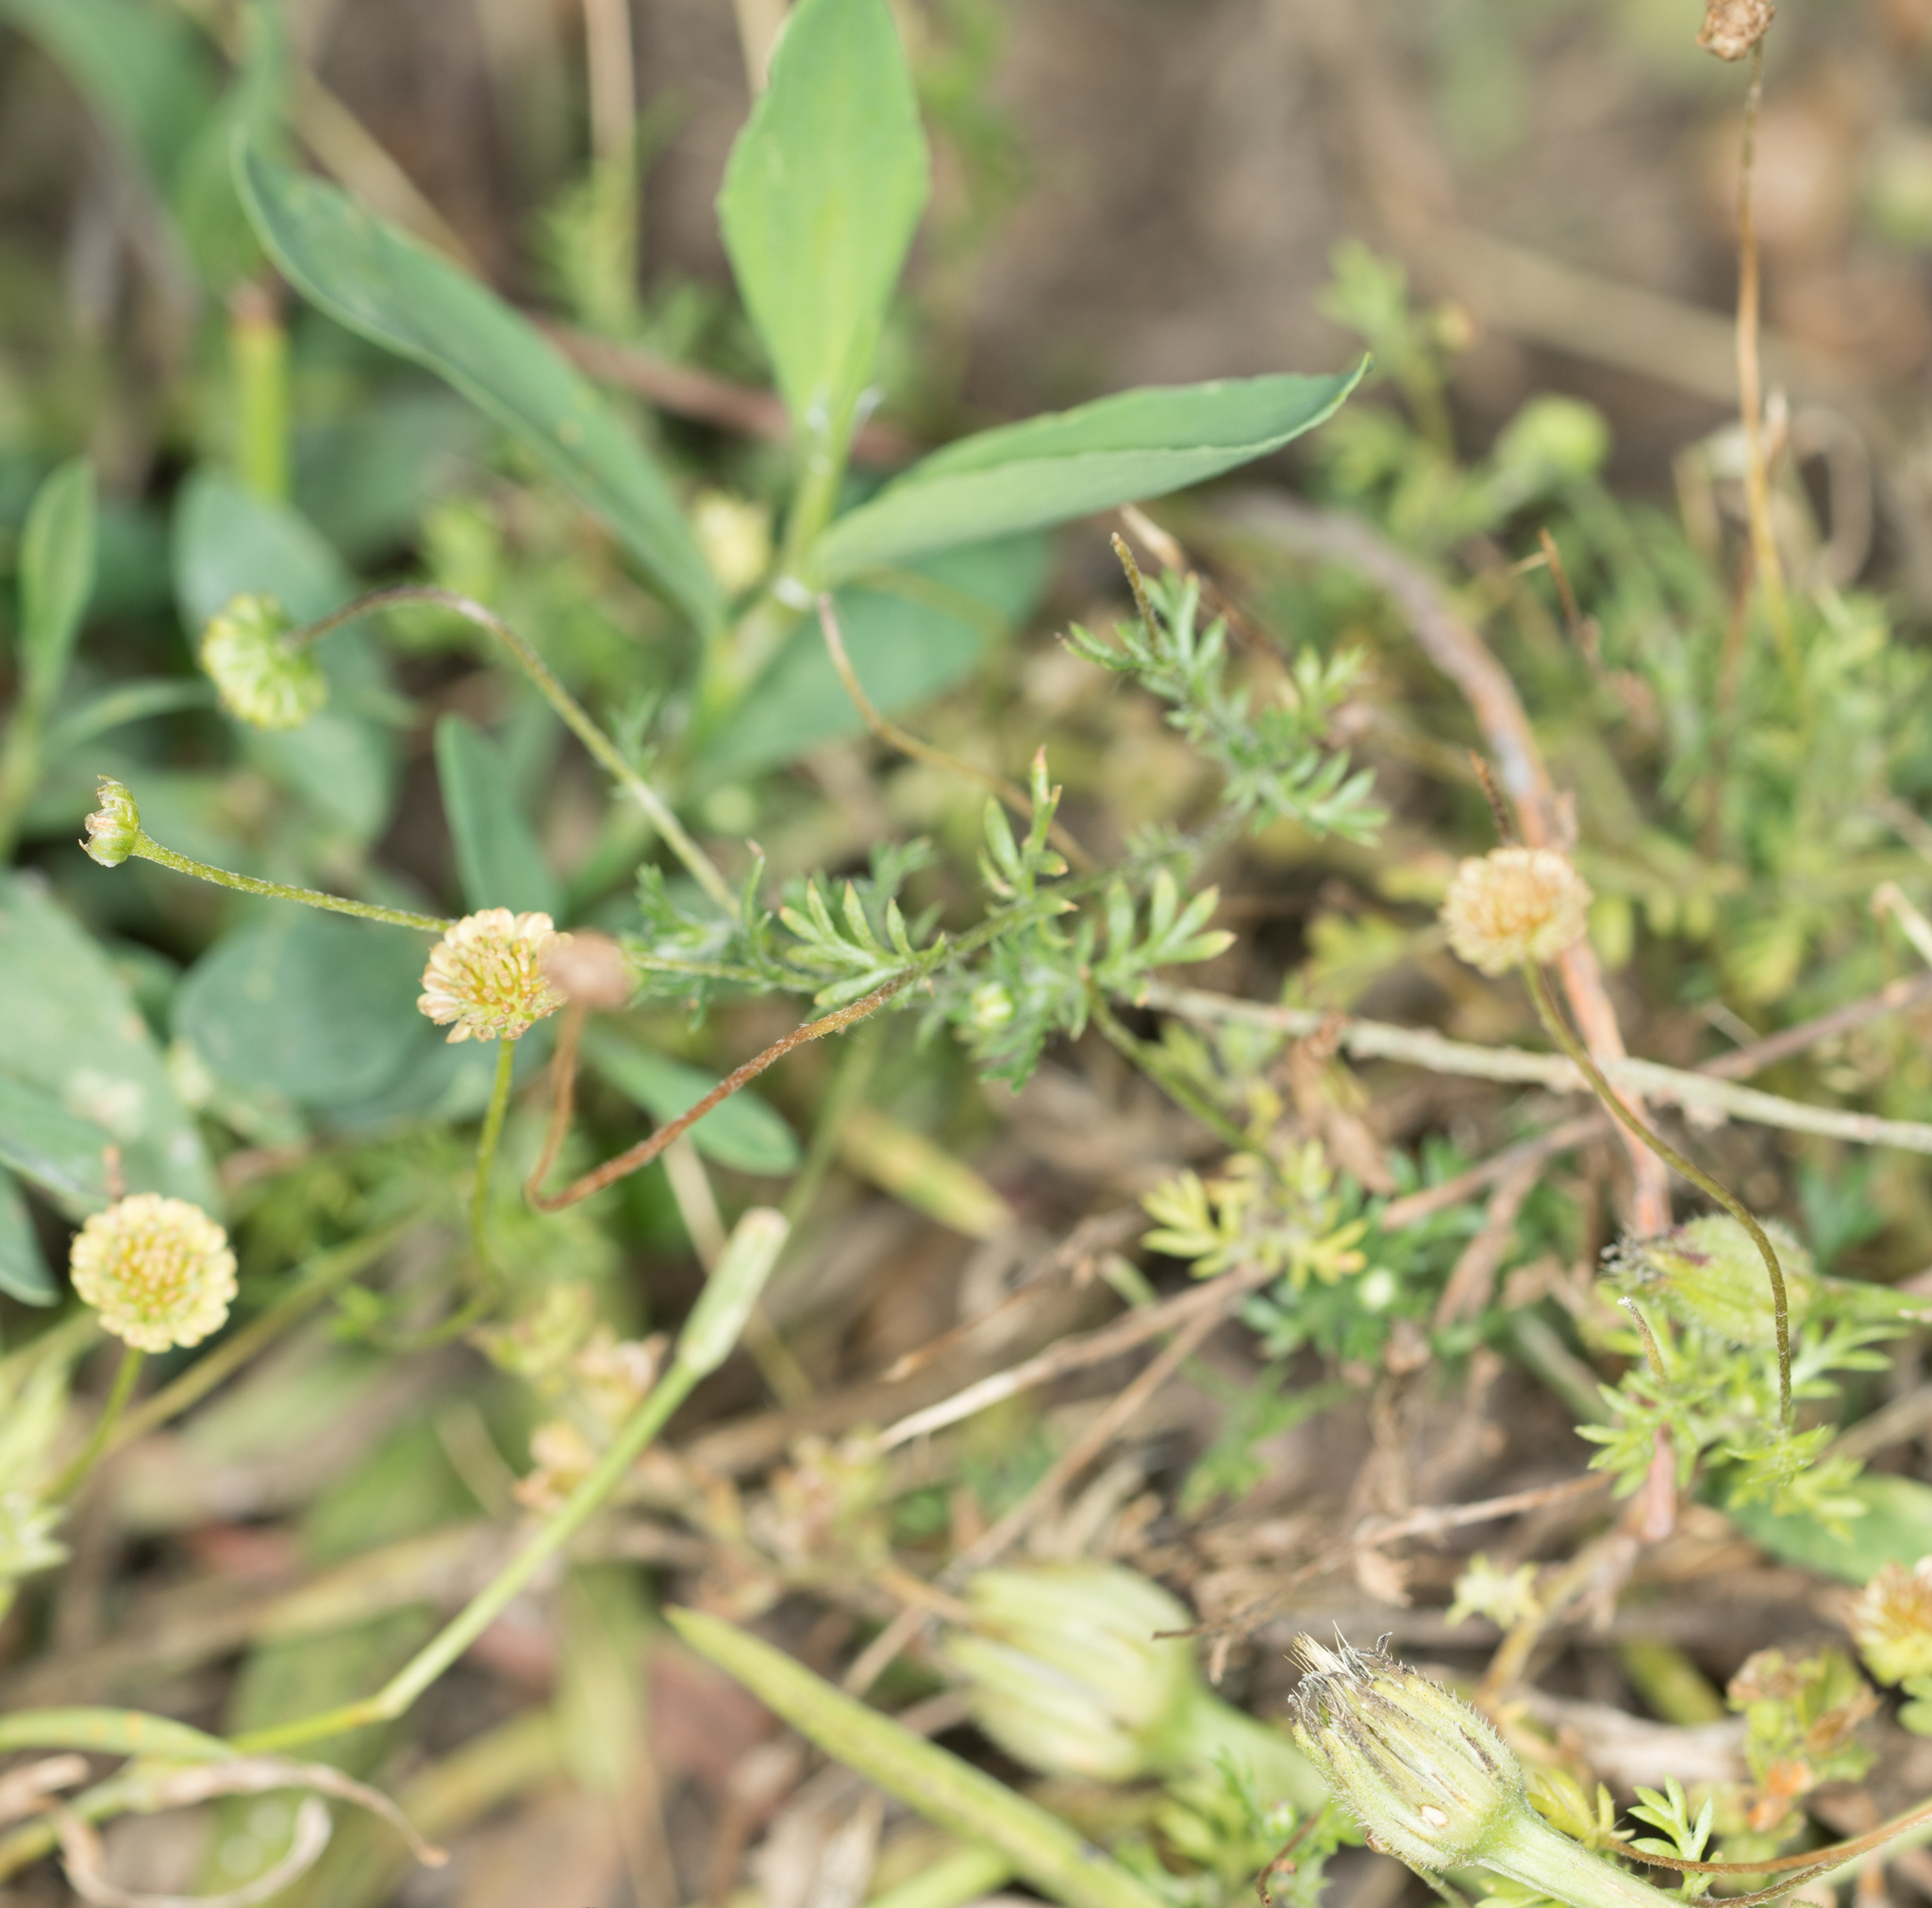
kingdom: Plantae
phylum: Tracheophyta
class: Magnoliopsida
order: Asterales
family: Asteraceae
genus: Cotula
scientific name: Cotula australis
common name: Australian waterbuttons
